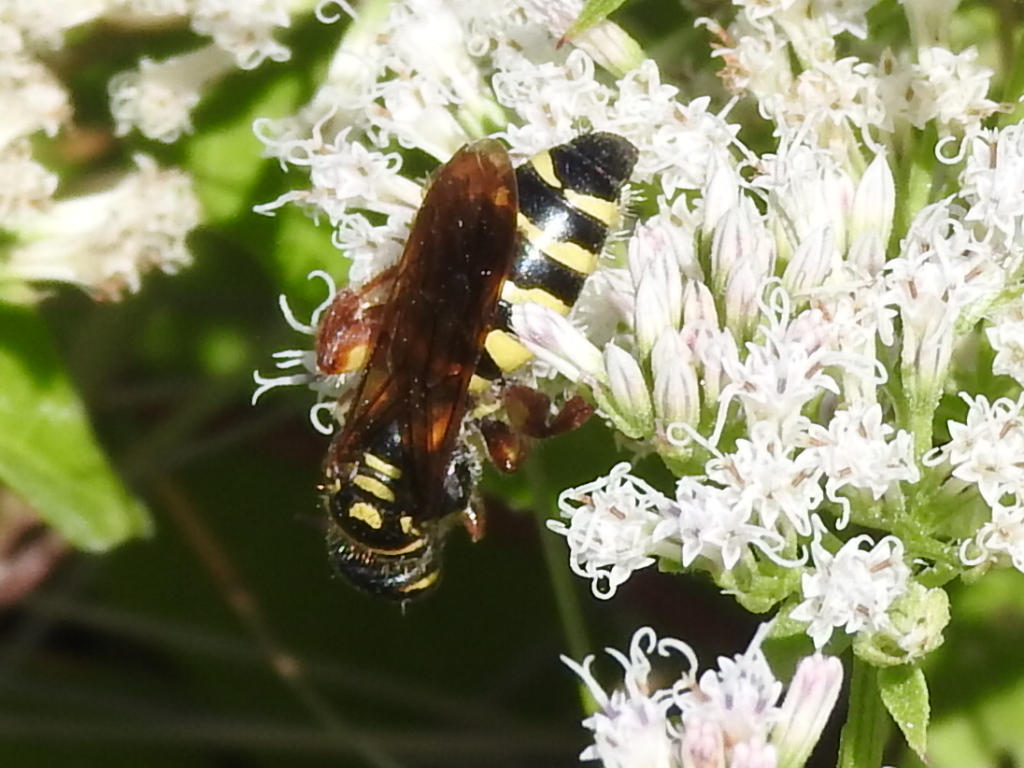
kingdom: Animalia
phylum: Arthropoda
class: Insecta
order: Hymenoptera
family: Tiphiidae
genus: Myzinum
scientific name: Myzinum quinquecinctum
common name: Five-banded thynnid wasp
